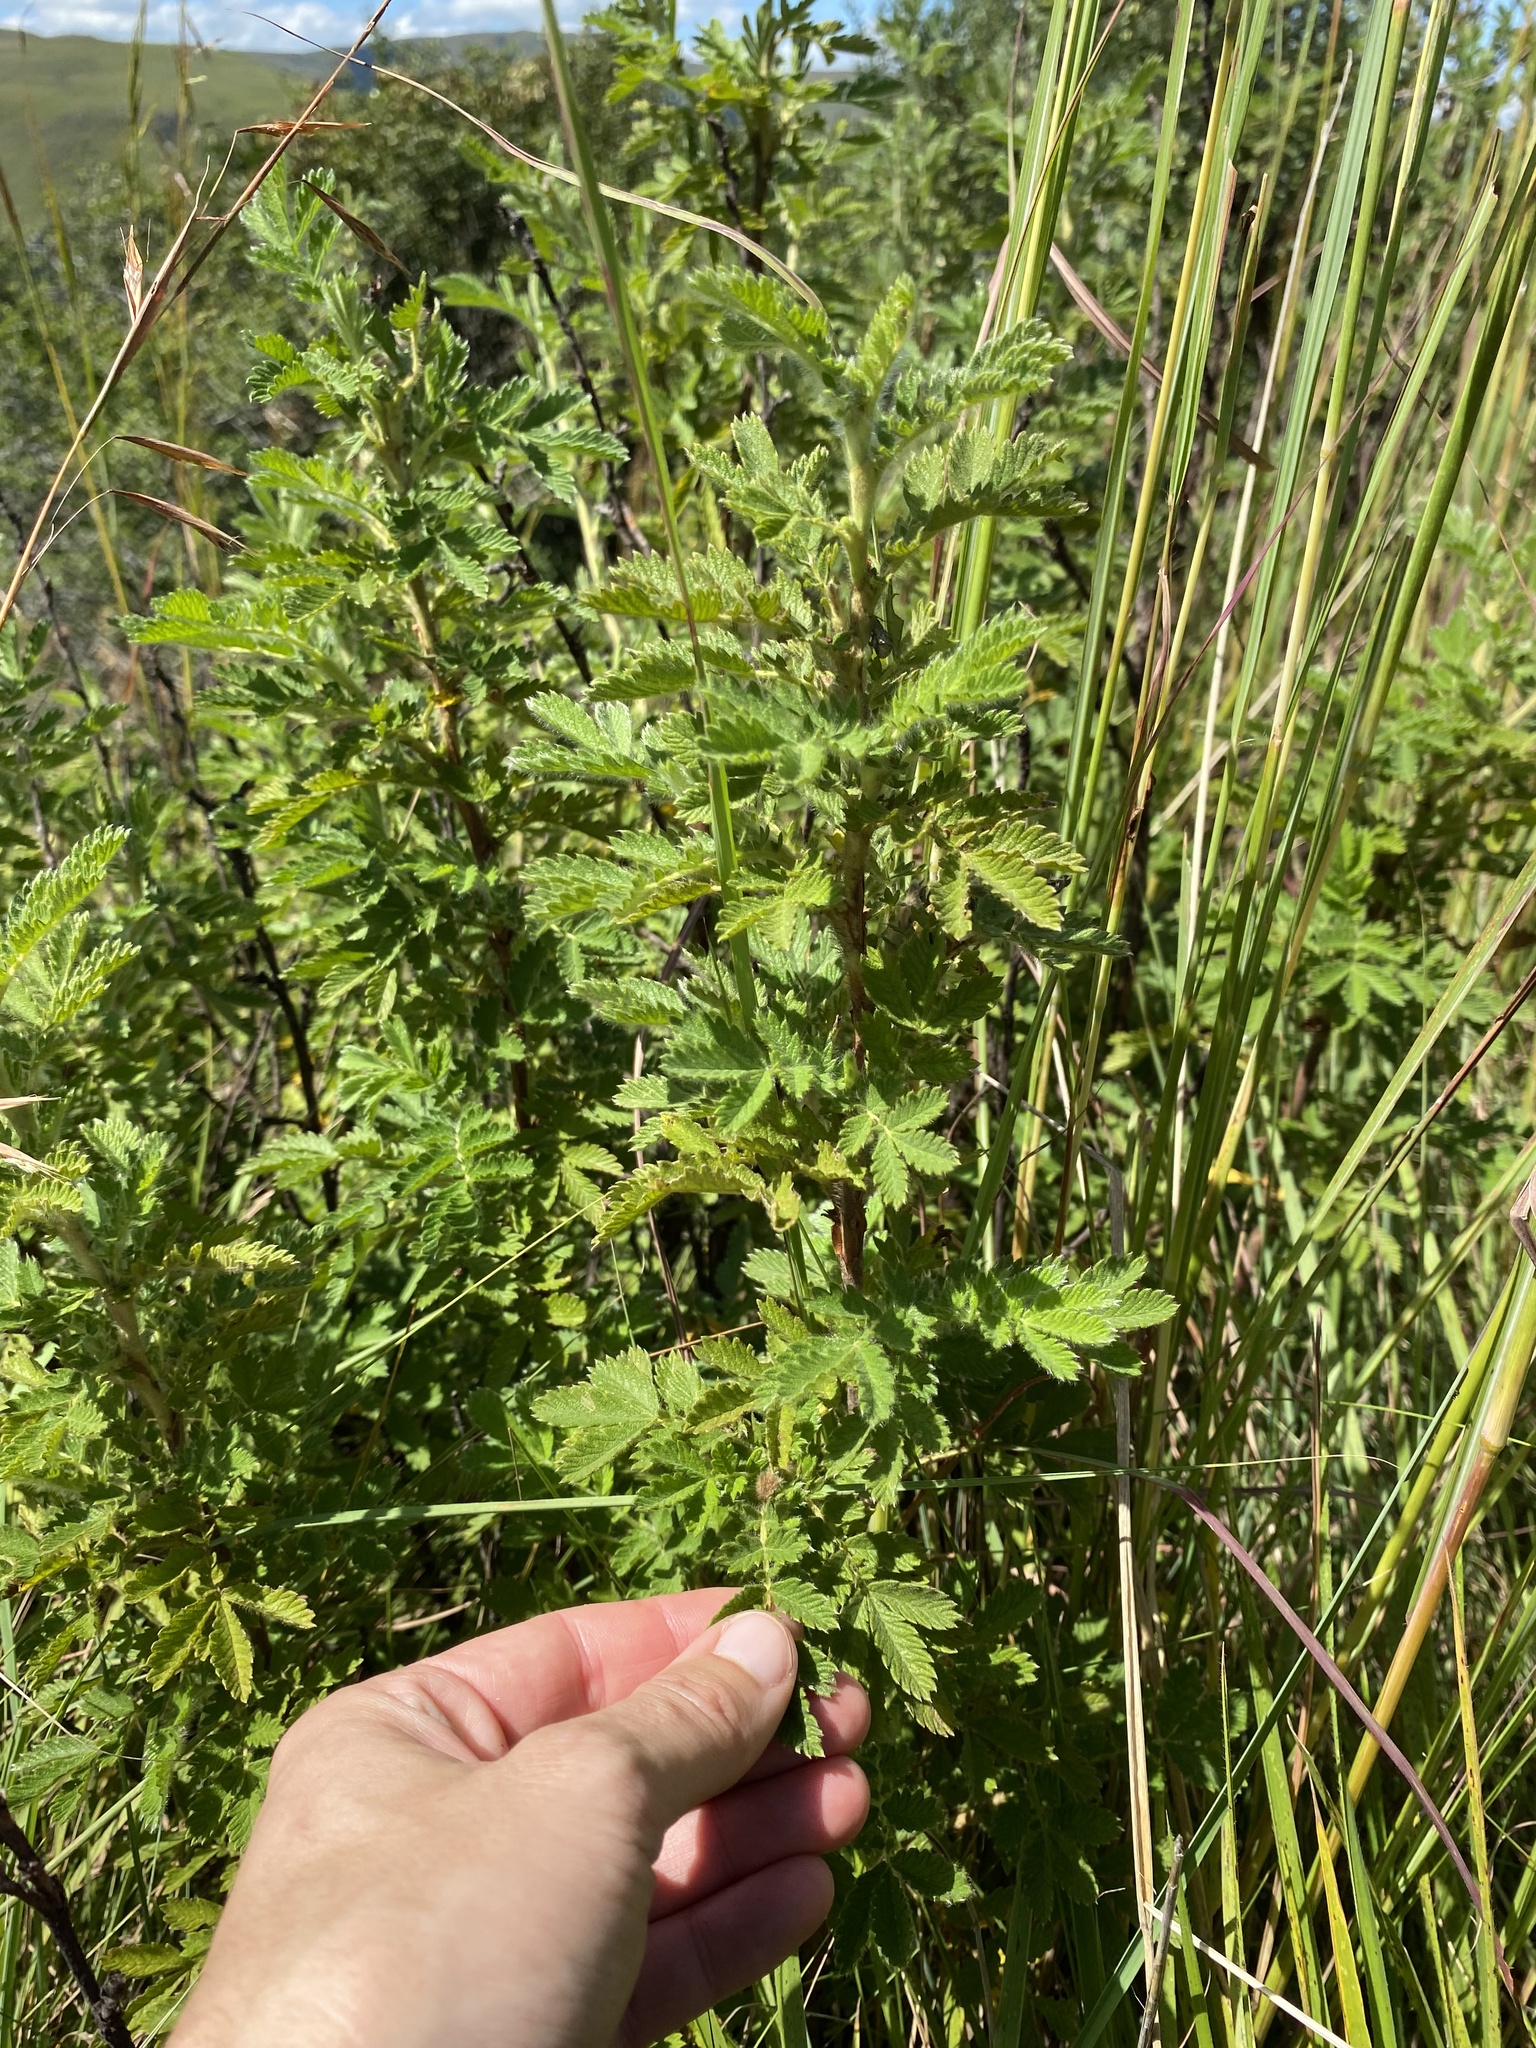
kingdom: Plantae
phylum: Tracheophyta
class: Magnoliopsida
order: Rosales
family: Rosaceae
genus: Leucosidea
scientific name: Leucosidea sericea
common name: Oldwood
